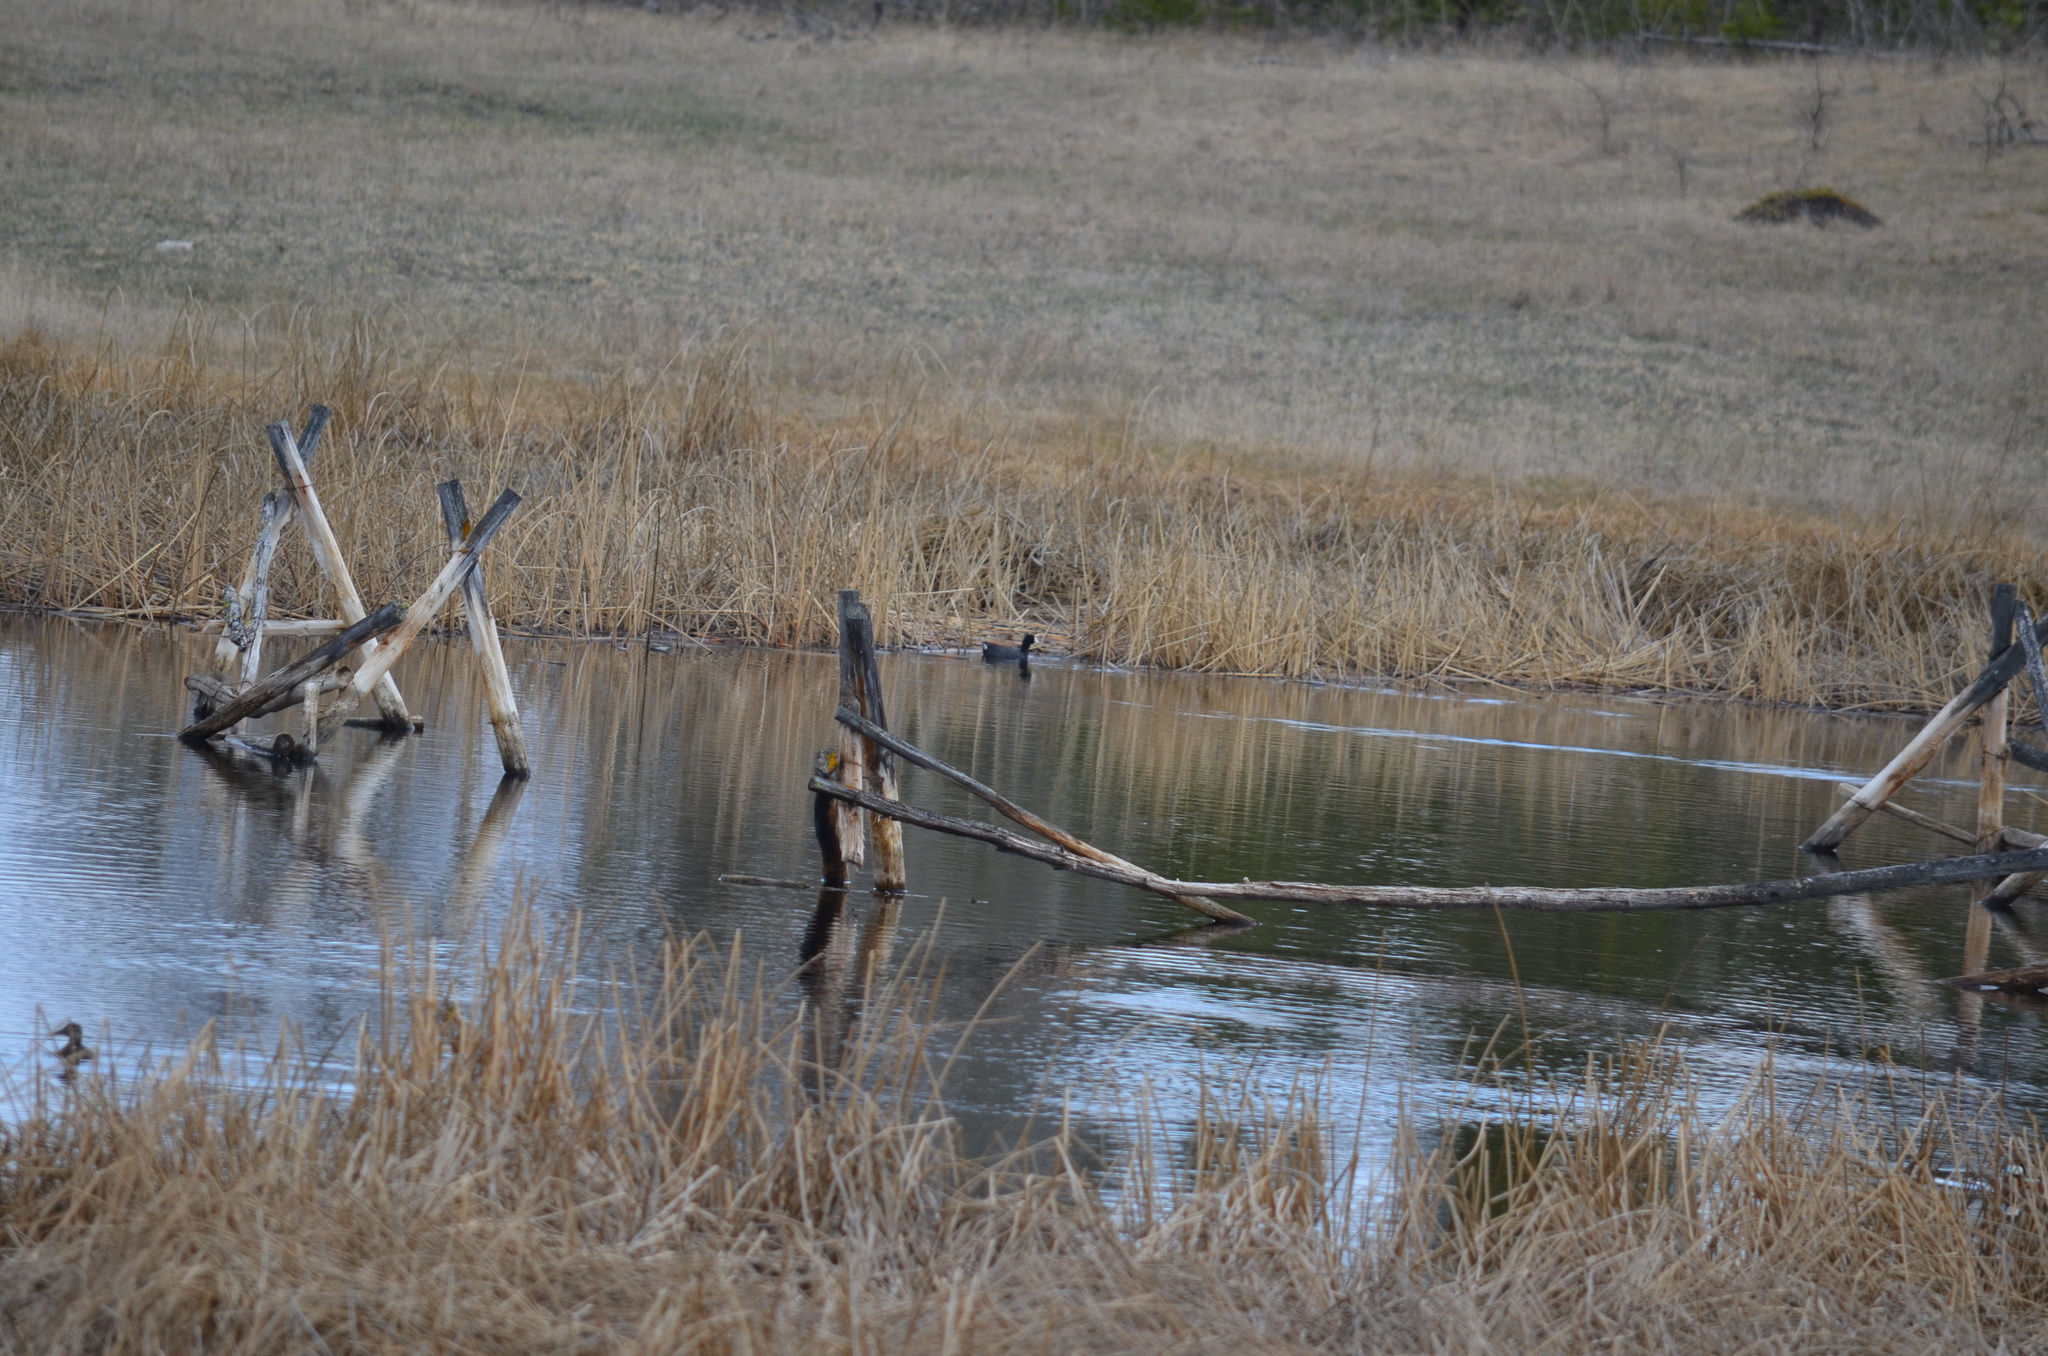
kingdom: Animalia
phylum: Chordata
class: Aves
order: Gruiformes
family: Rallidae
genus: Fulica
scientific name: Fulica americana
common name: American coot
